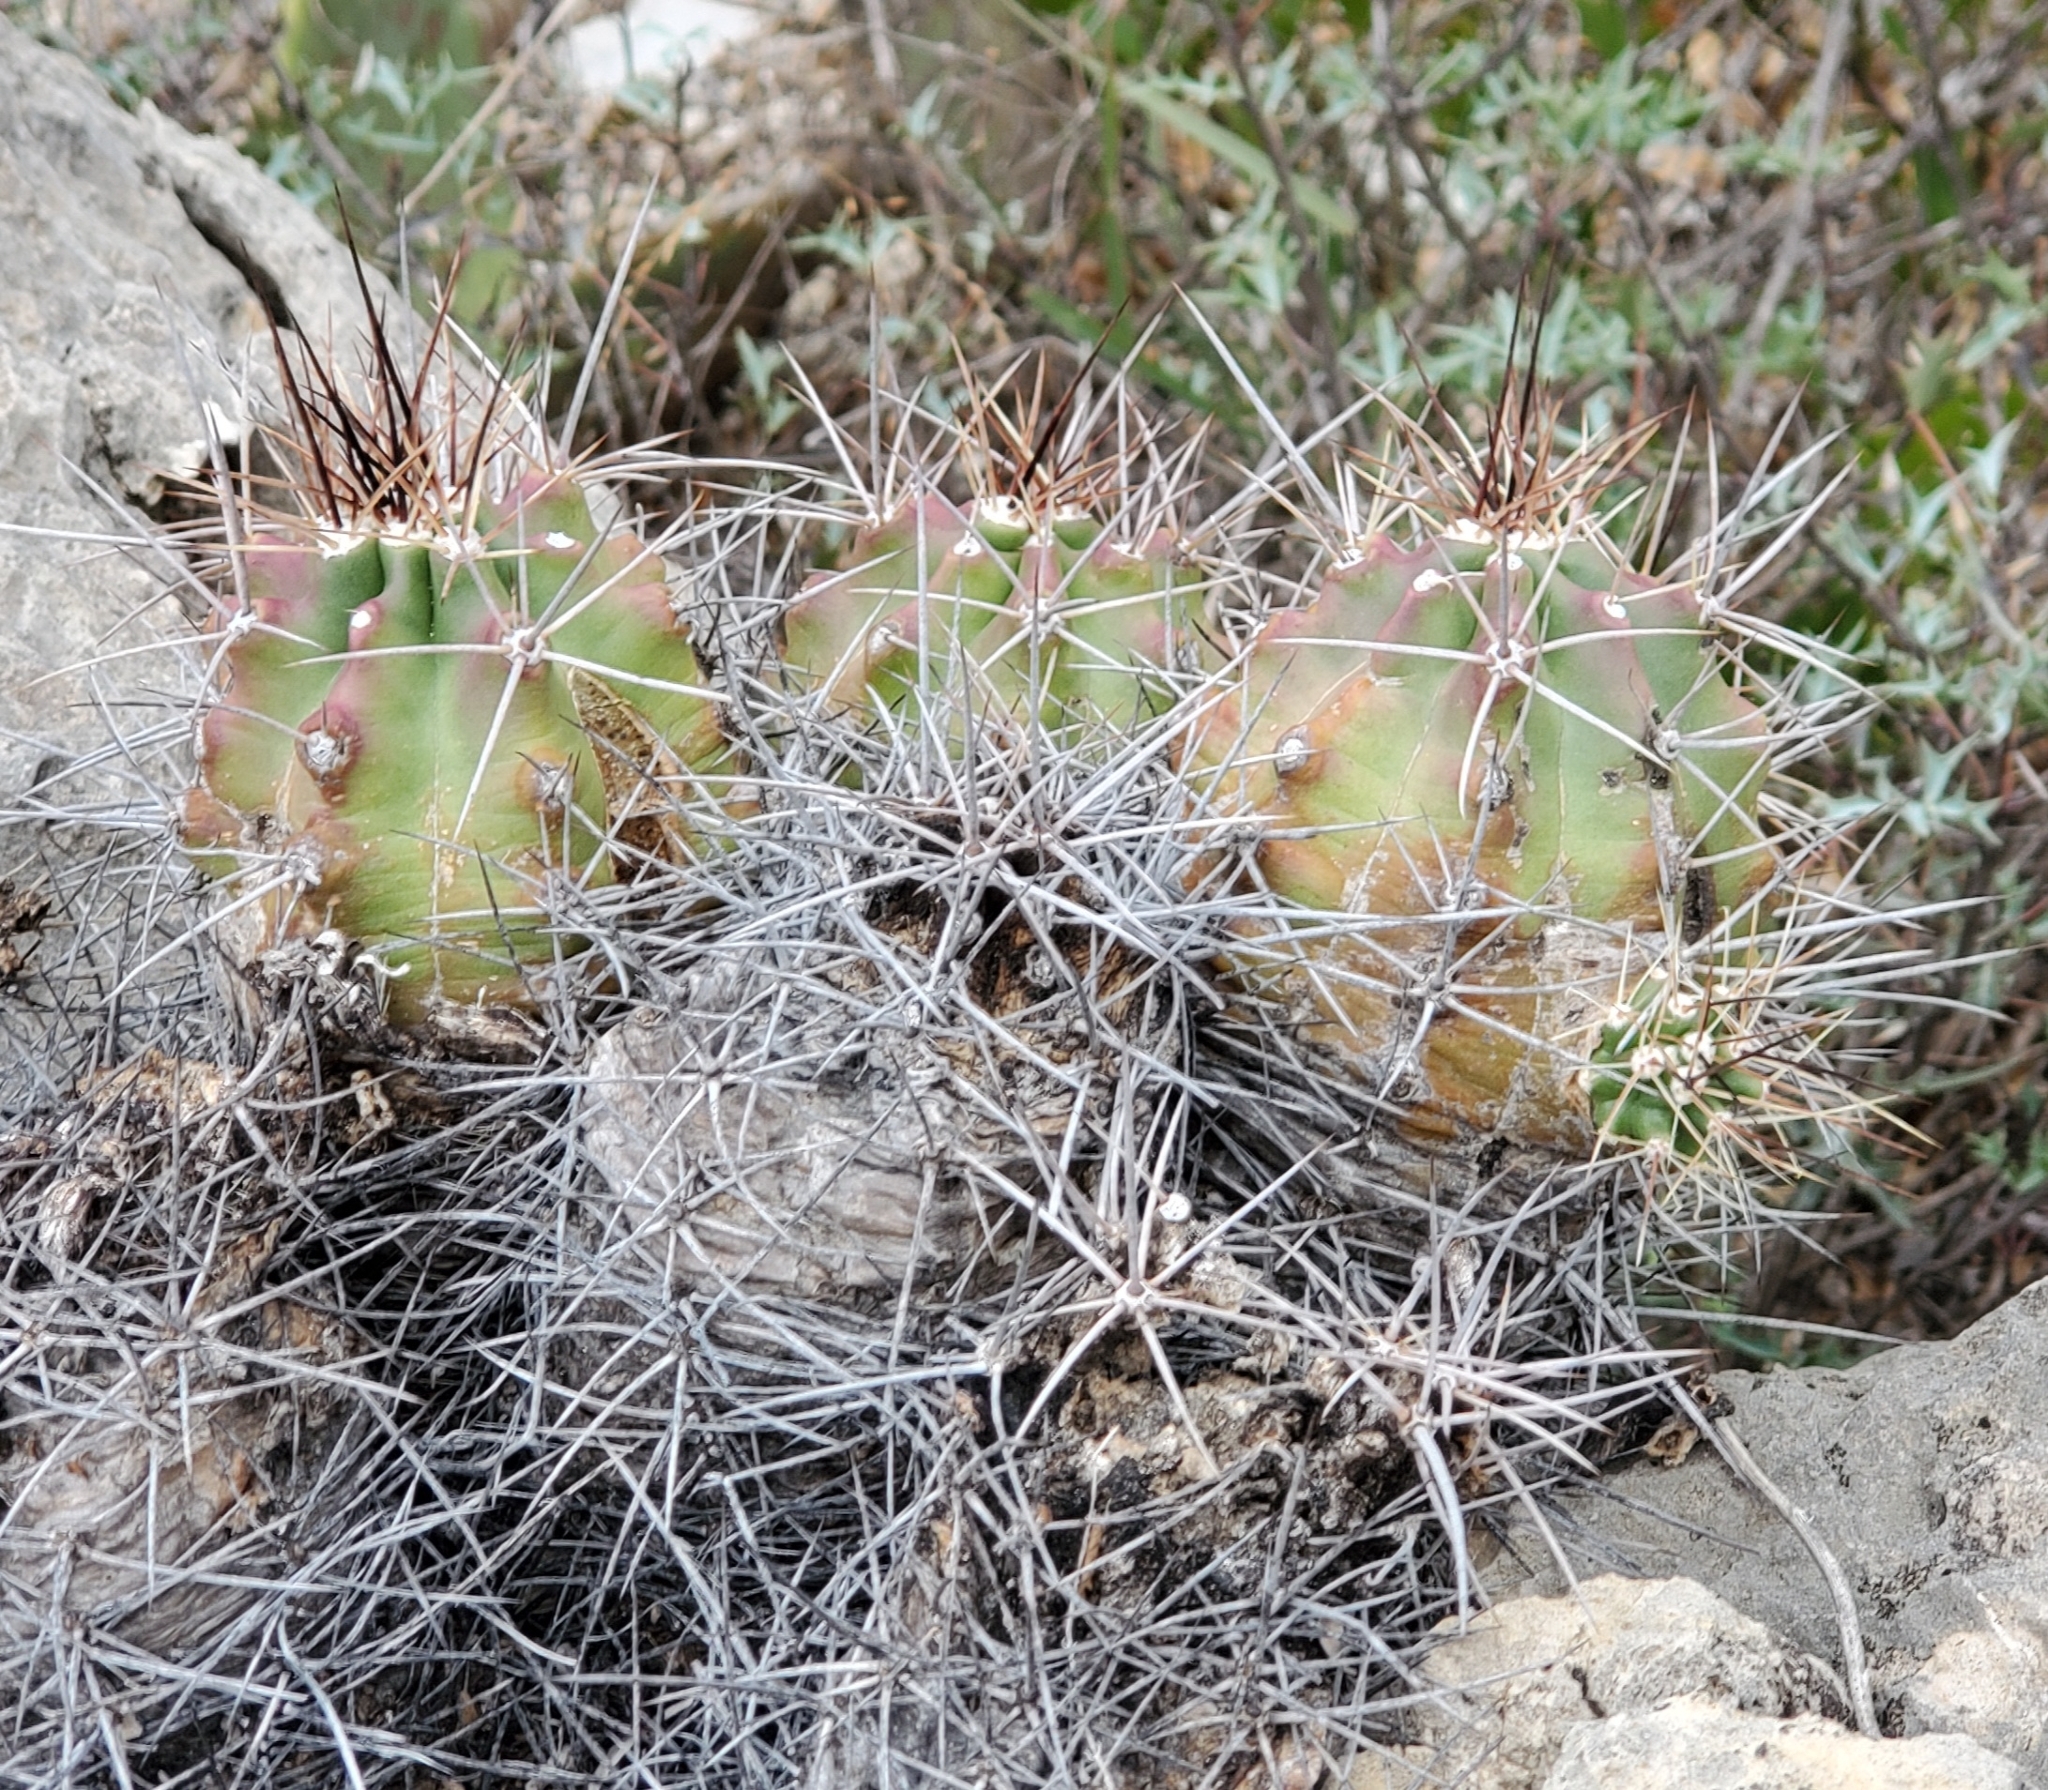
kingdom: Plantae
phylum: Tracheophyta
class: Magnoliopsida
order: Caryophyllales
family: Cactaceae
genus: Echinocereus
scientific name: Echinocereus coccineus
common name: Scarlet hedgehog cactus
